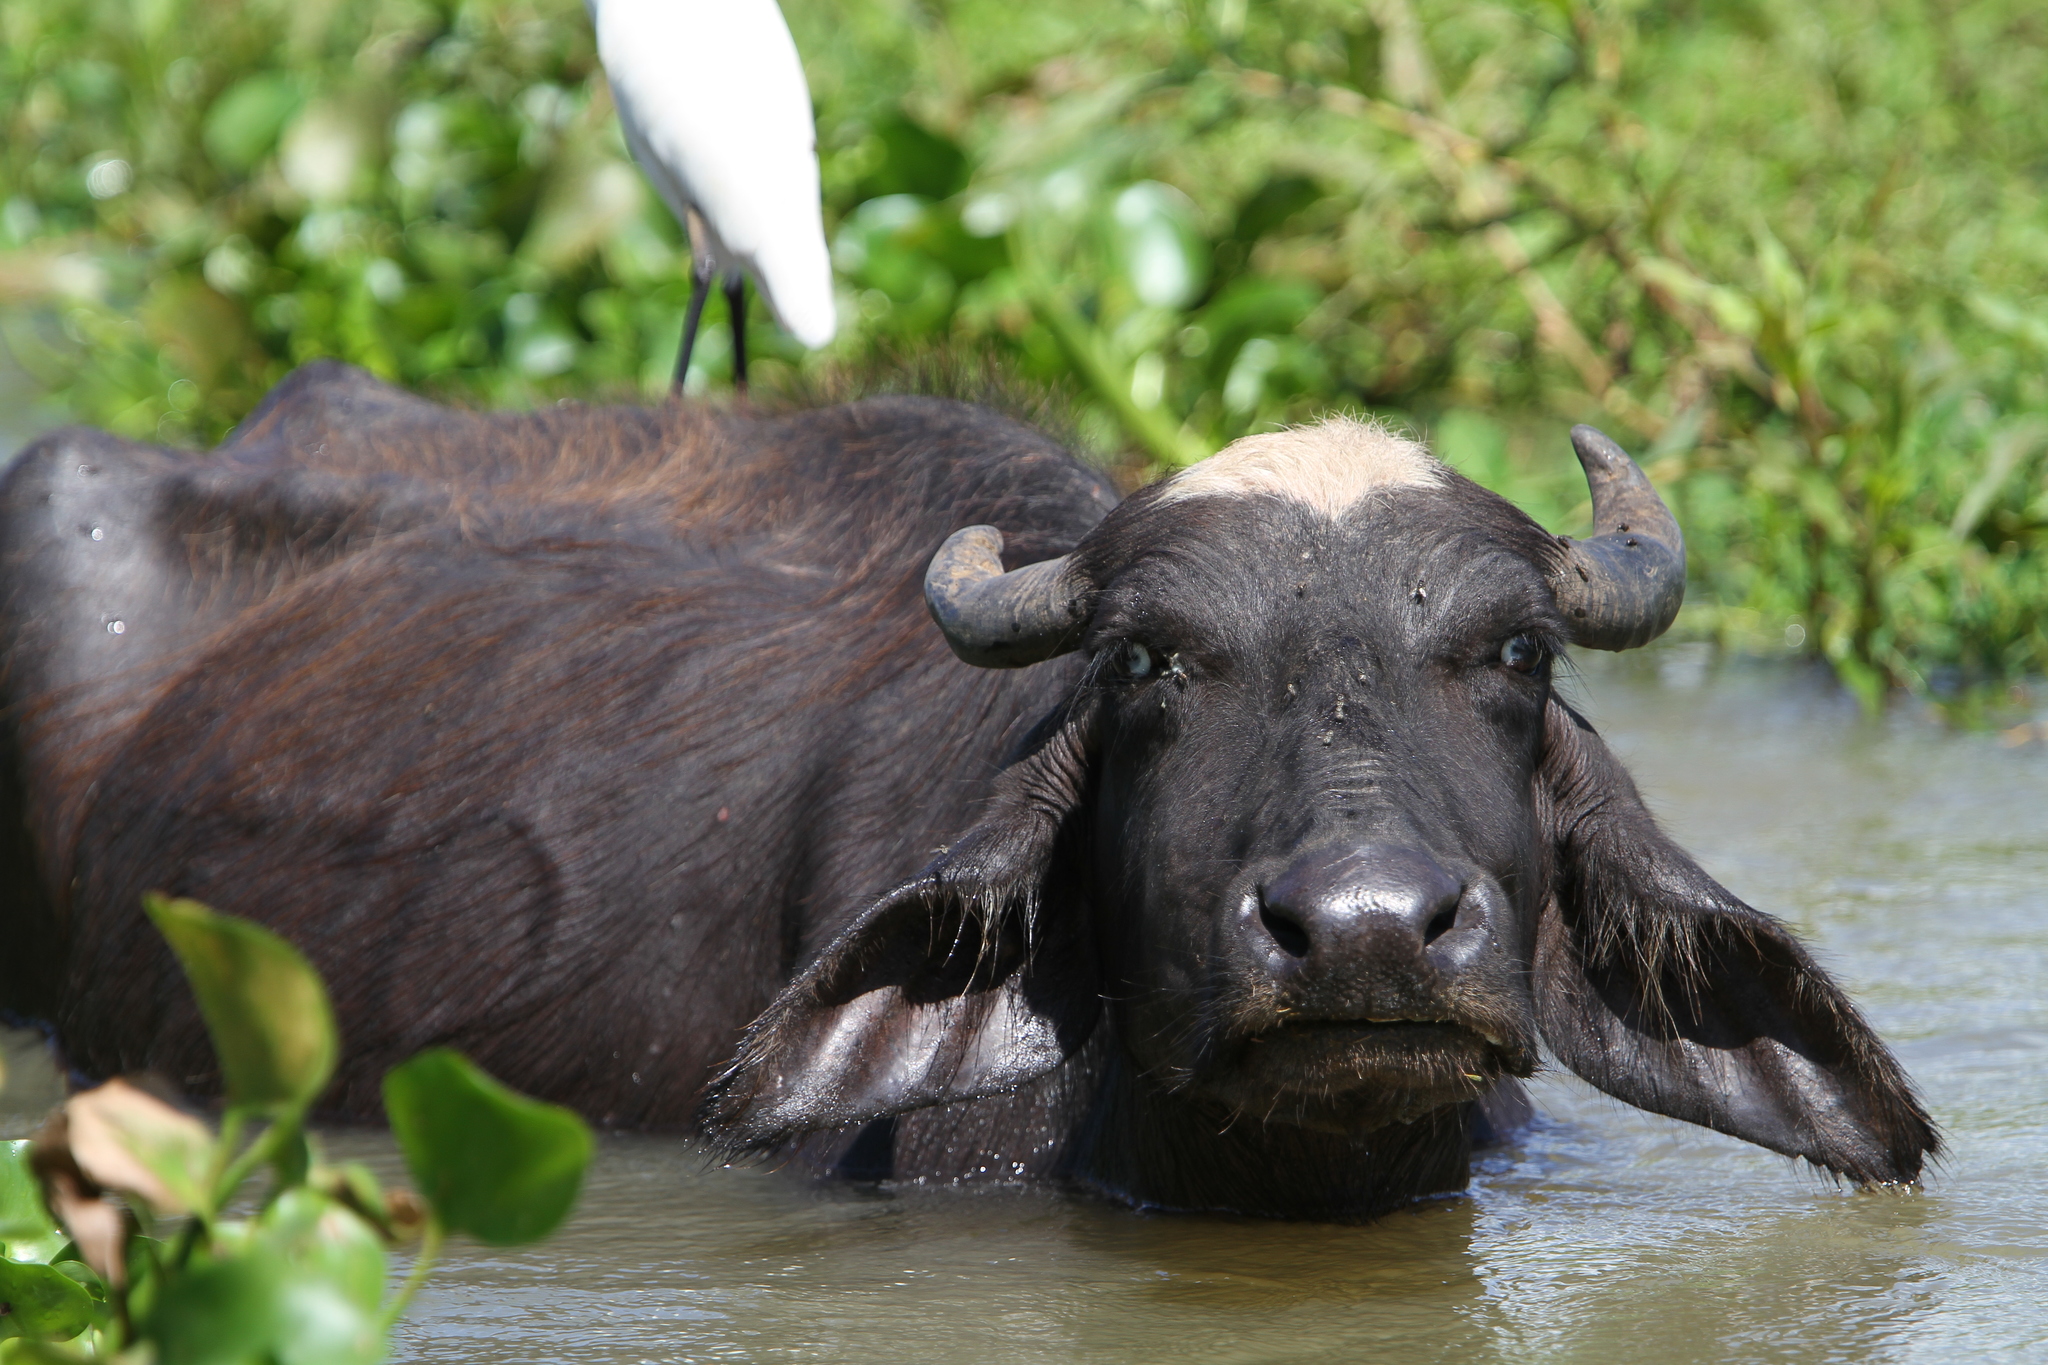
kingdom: Animalia
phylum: Chordata
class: Mammalia
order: Artiodactyla
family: Bovidae
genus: Bubalus
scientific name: Bubalus bubalis
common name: Water buffalo
